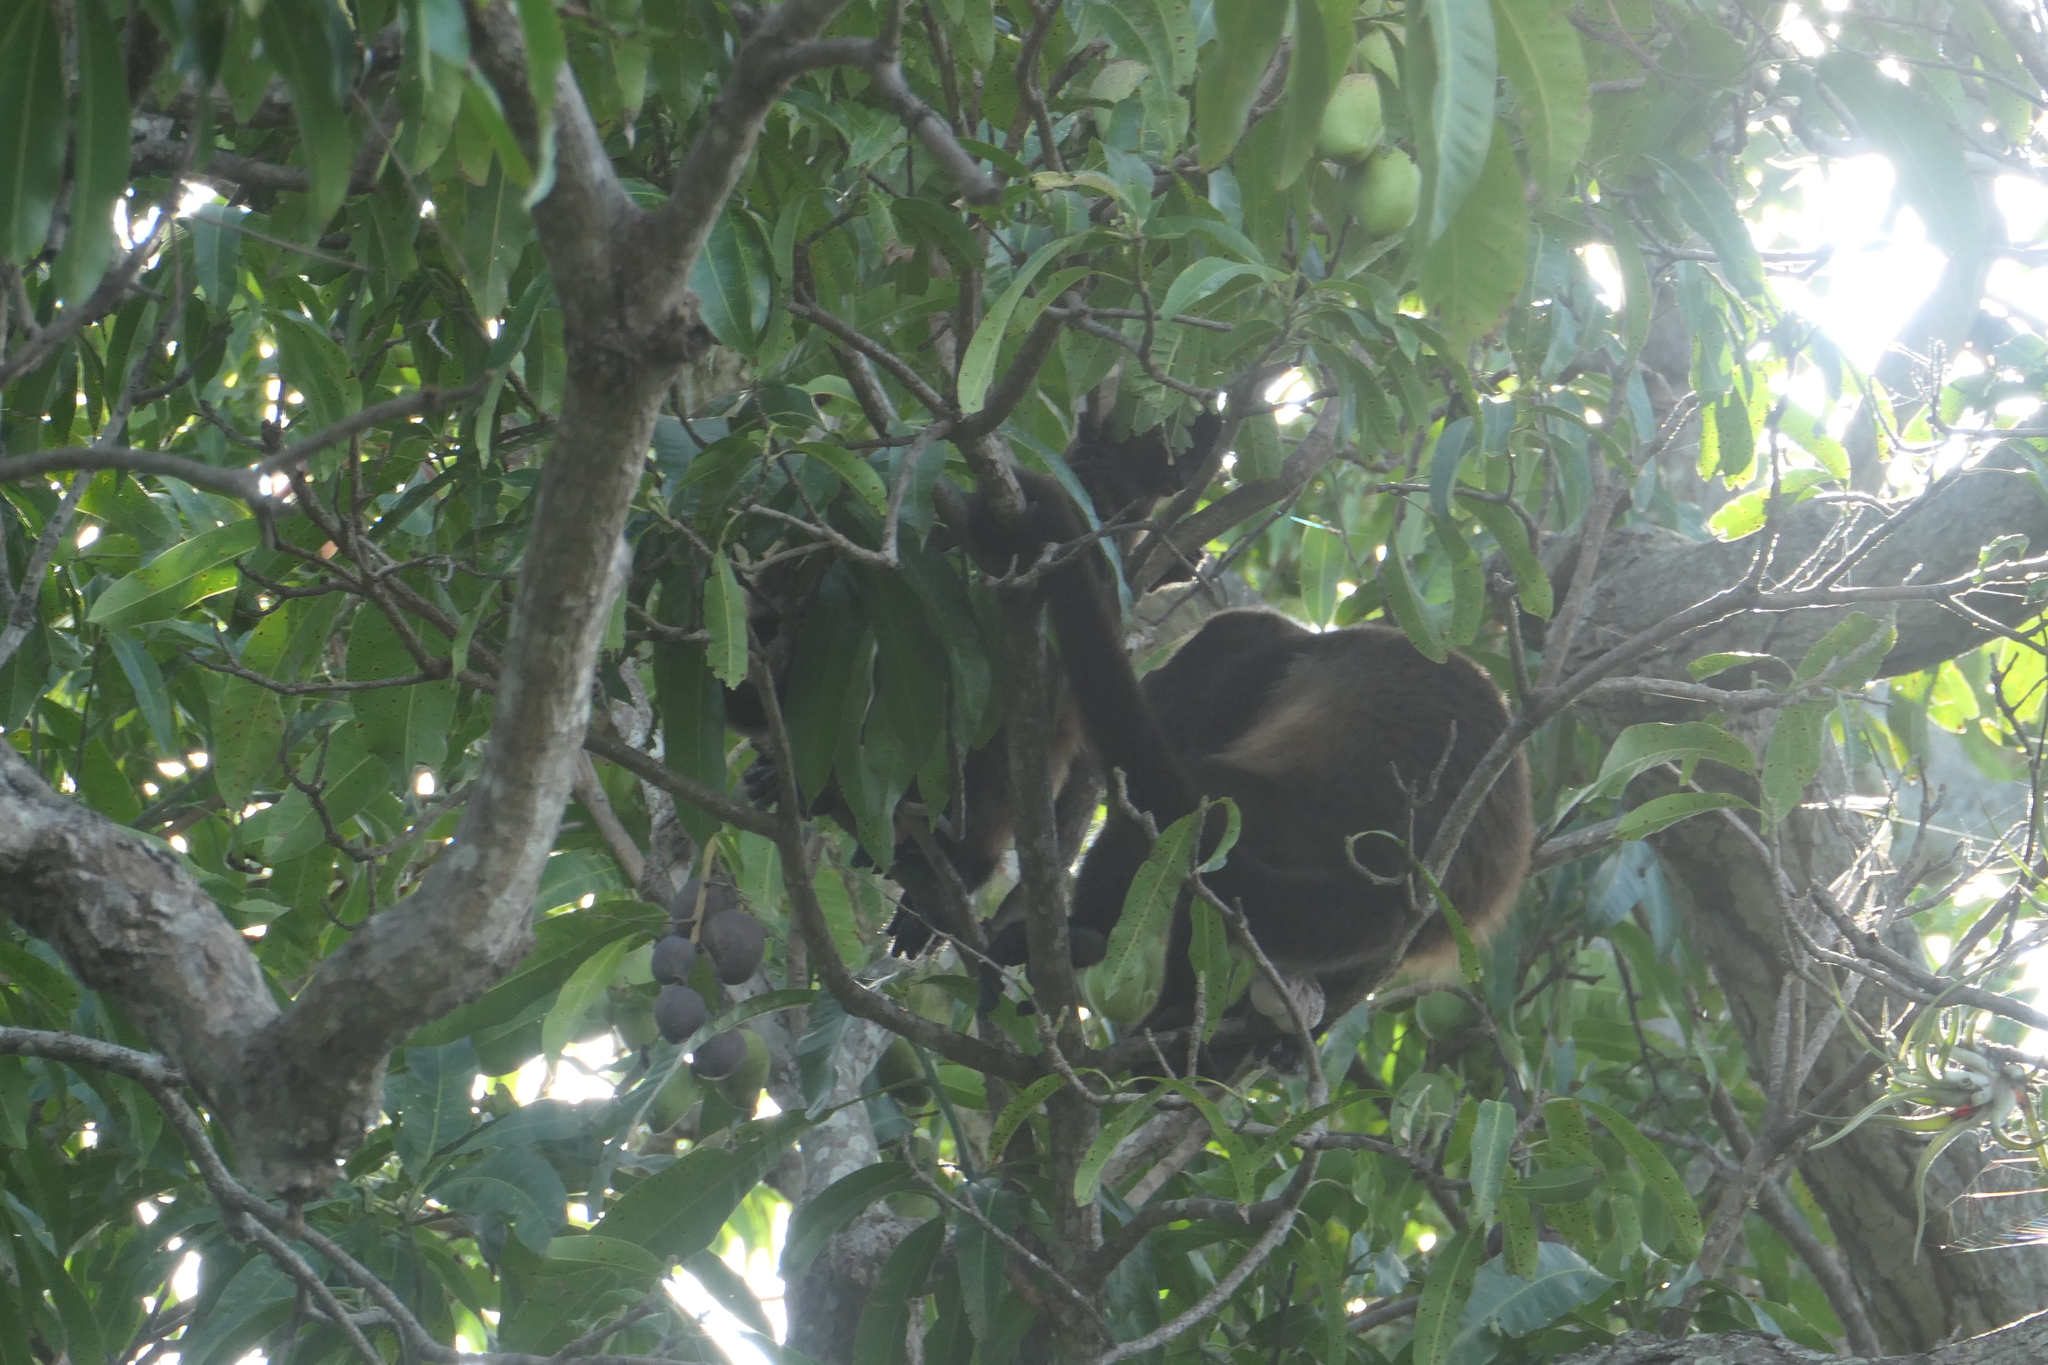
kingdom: Animalia
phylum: Chordata
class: Mammalia
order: Primates
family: Atelidae
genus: Alouatta
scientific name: Alouatta palliata
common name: Mantled howler
